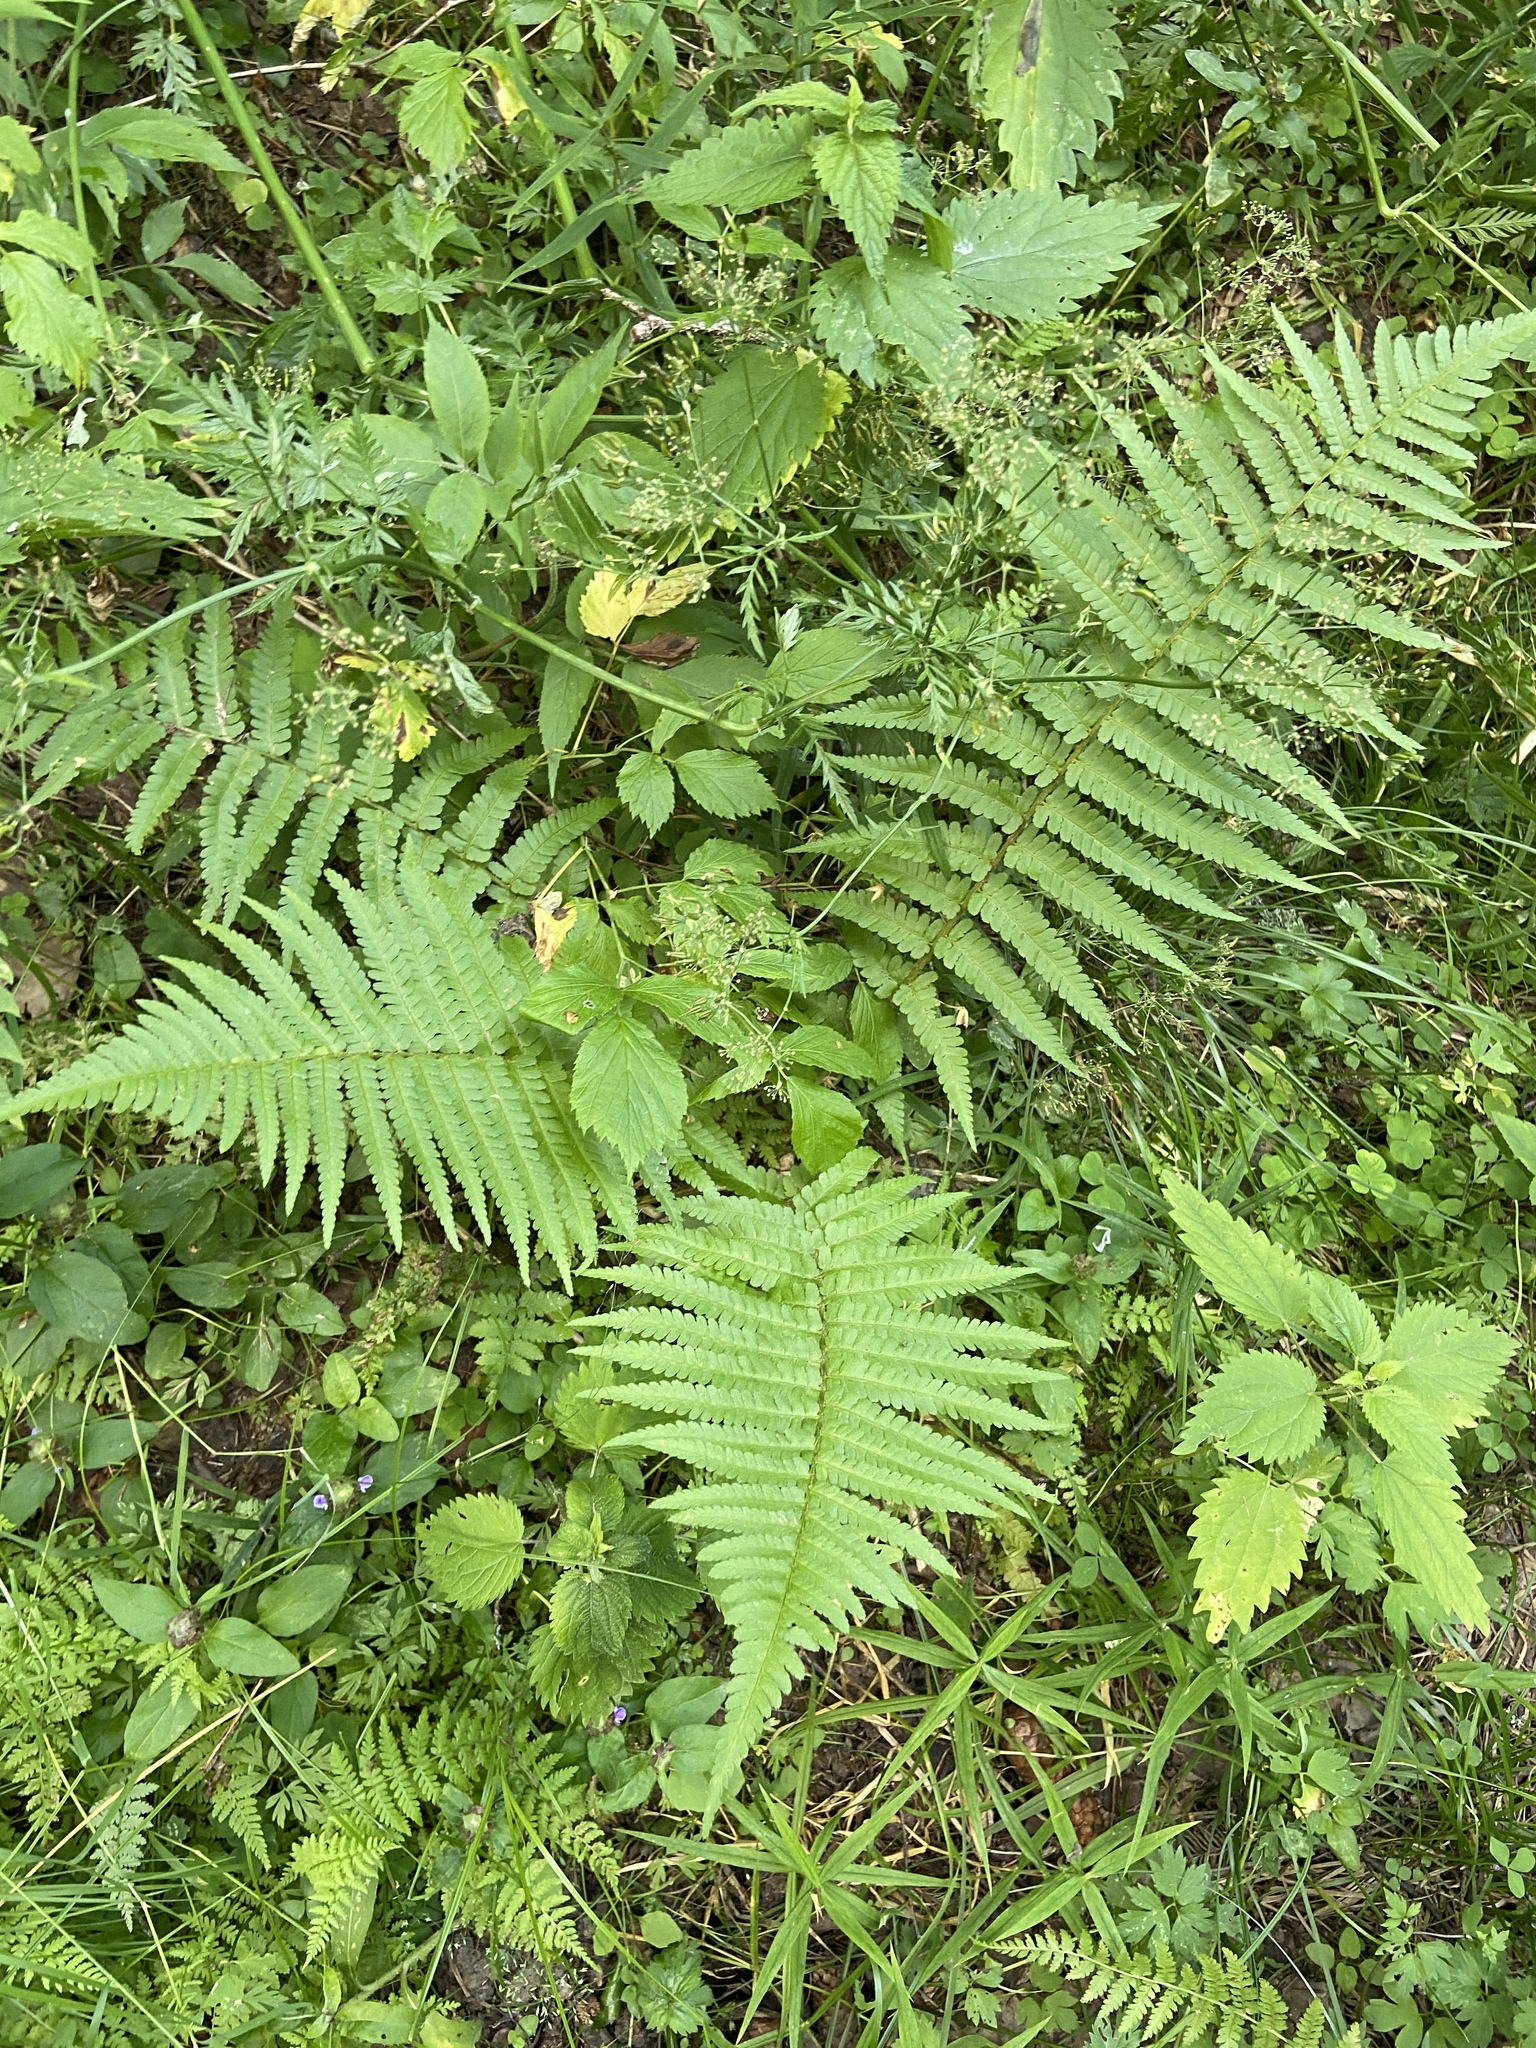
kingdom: Plantae
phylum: Tracheophyta
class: Polypodiopsida
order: Polypodiales
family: Dryopteridaceae
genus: Dryopteris
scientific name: Dryopteris filix-mas
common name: Male fern
